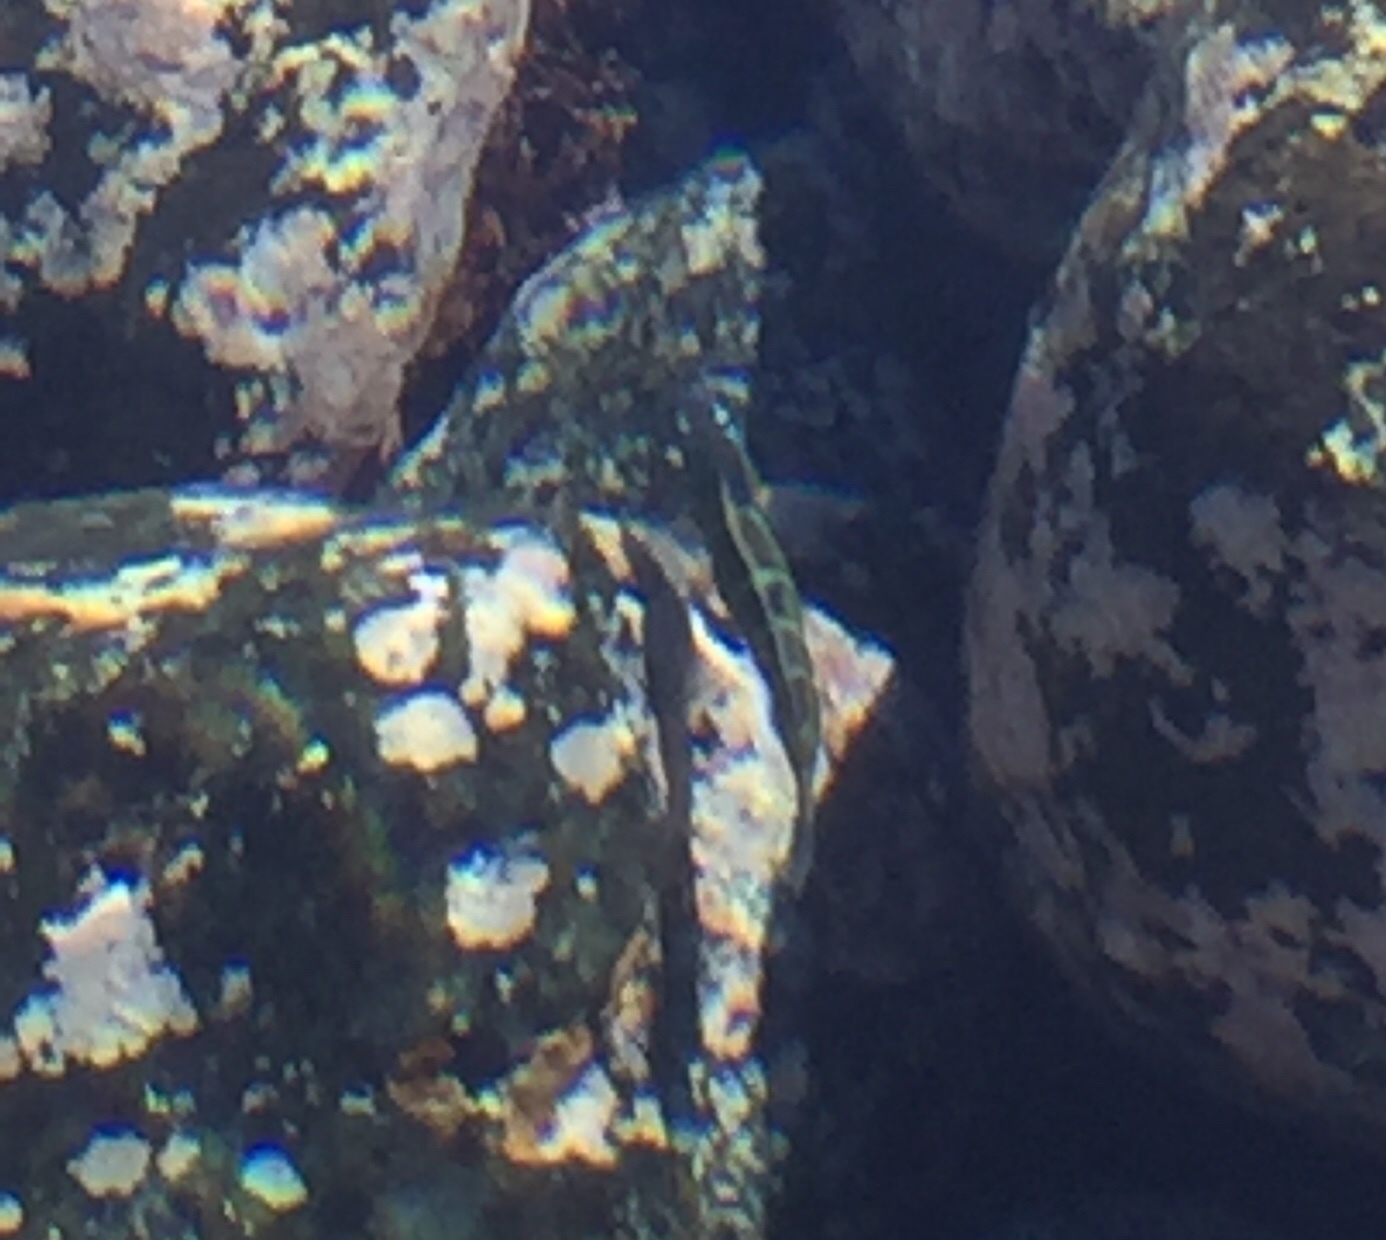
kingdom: Animalia
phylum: Chordata
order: Perciformes
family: Labridae
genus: Thalassoma
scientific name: Thalassoma pavo
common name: Ornate wrasse
